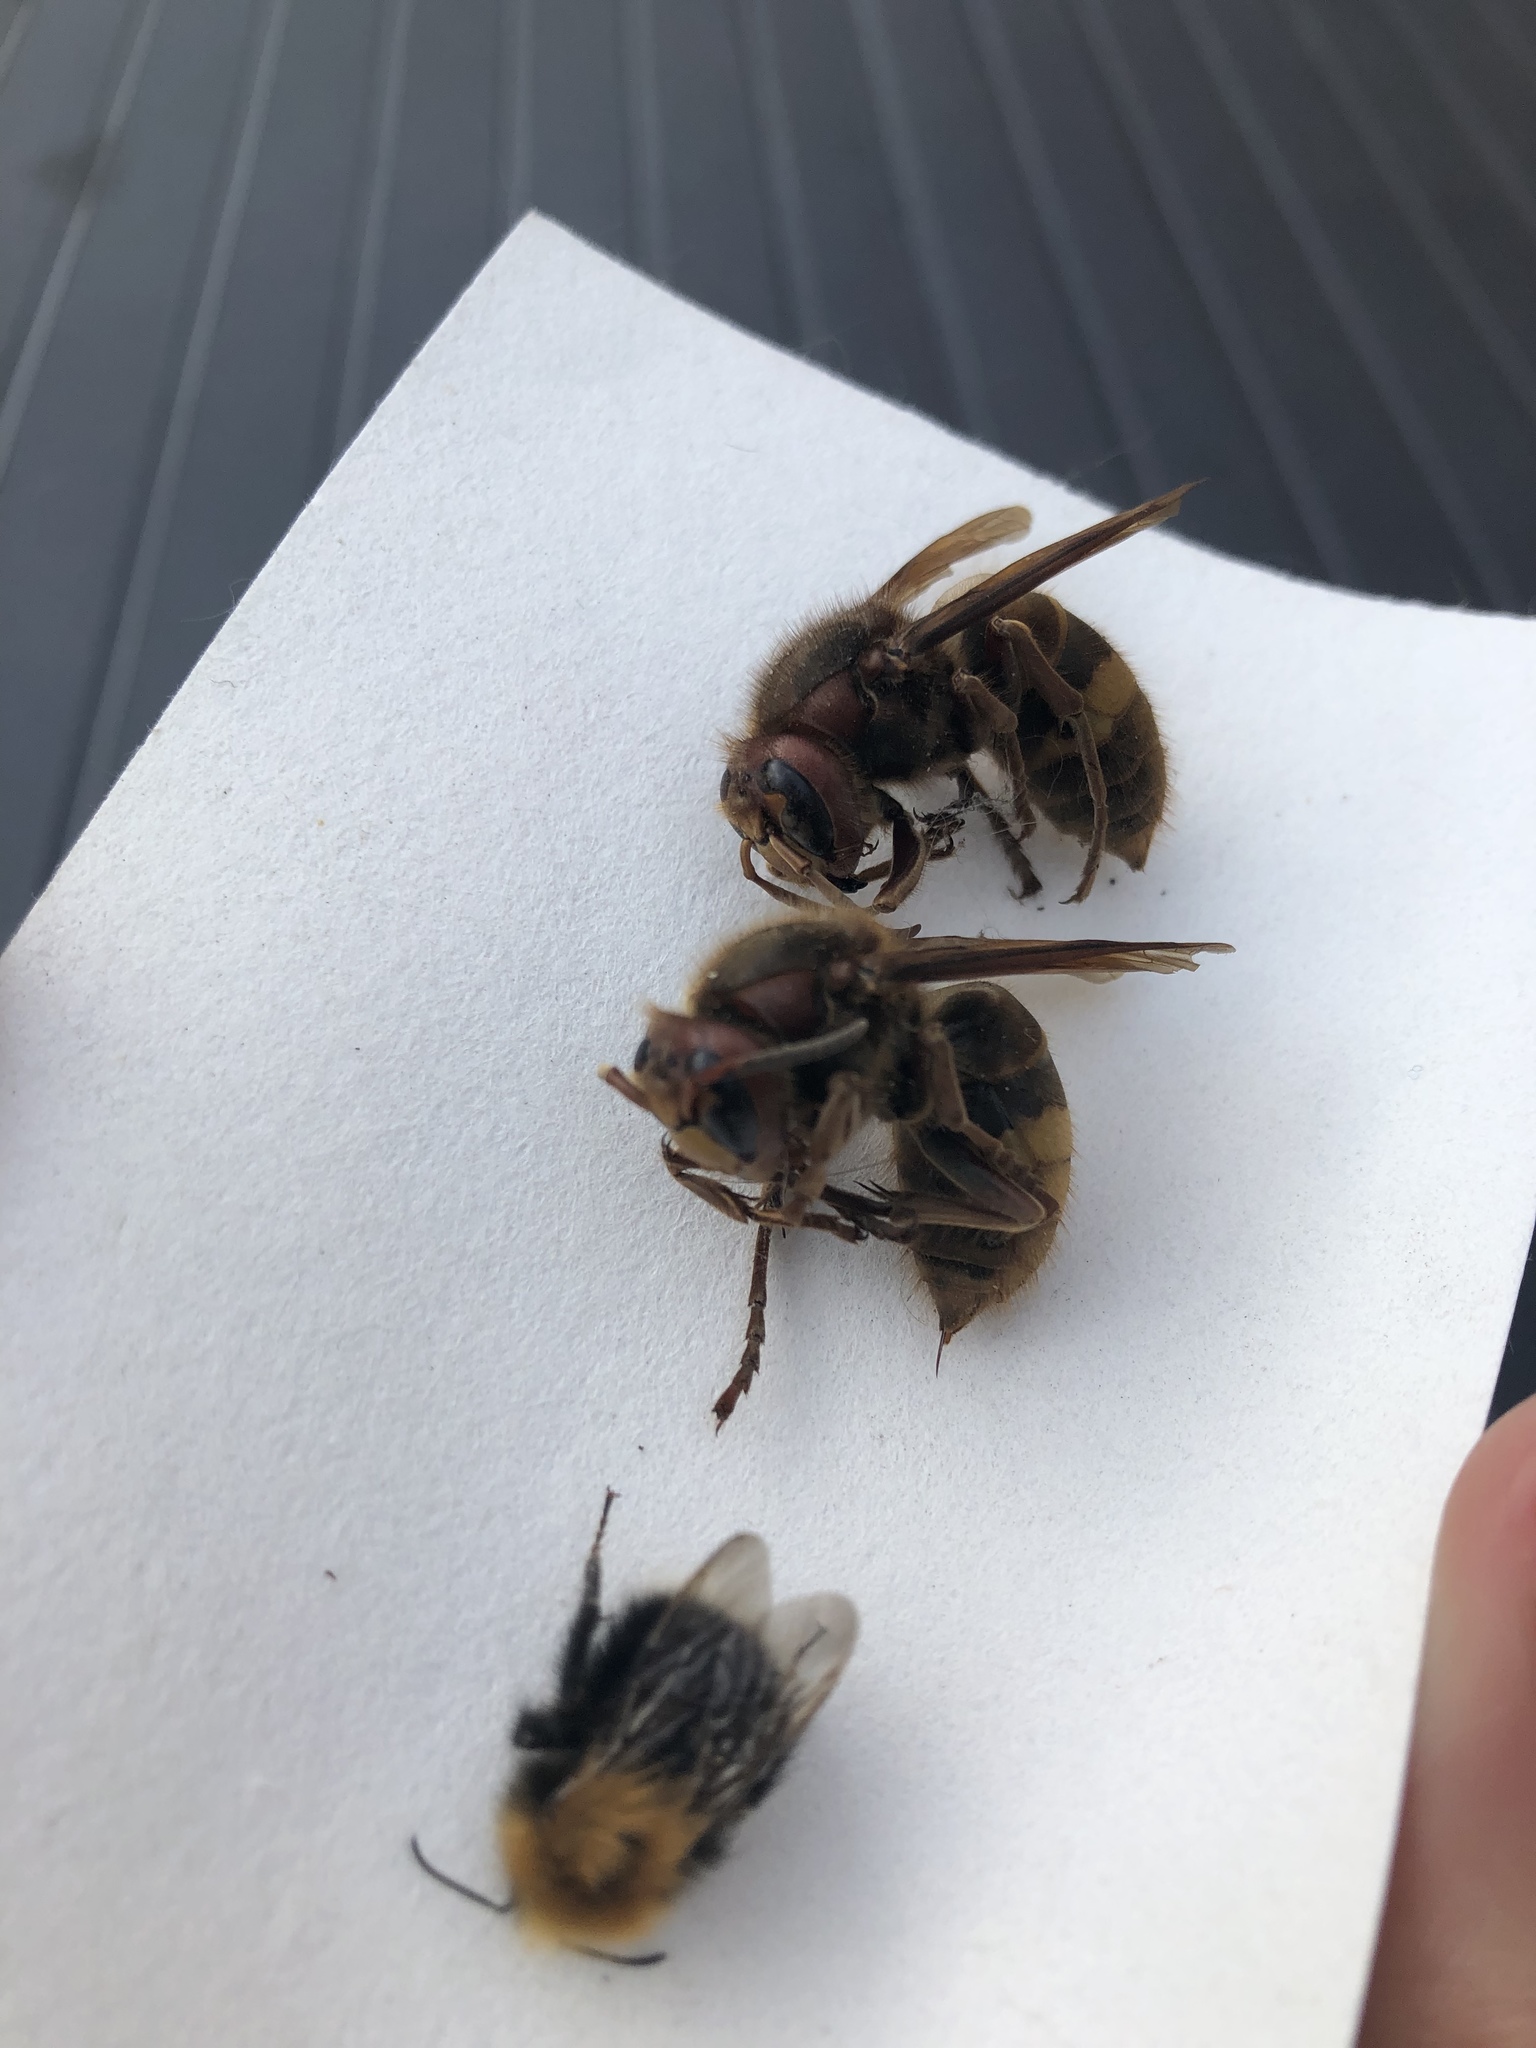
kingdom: Animalia
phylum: Arthropoda
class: Insecta
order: Hymenoptera
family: Vespidae
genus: Vespa
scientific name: Vespa crabro
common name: Hornet
